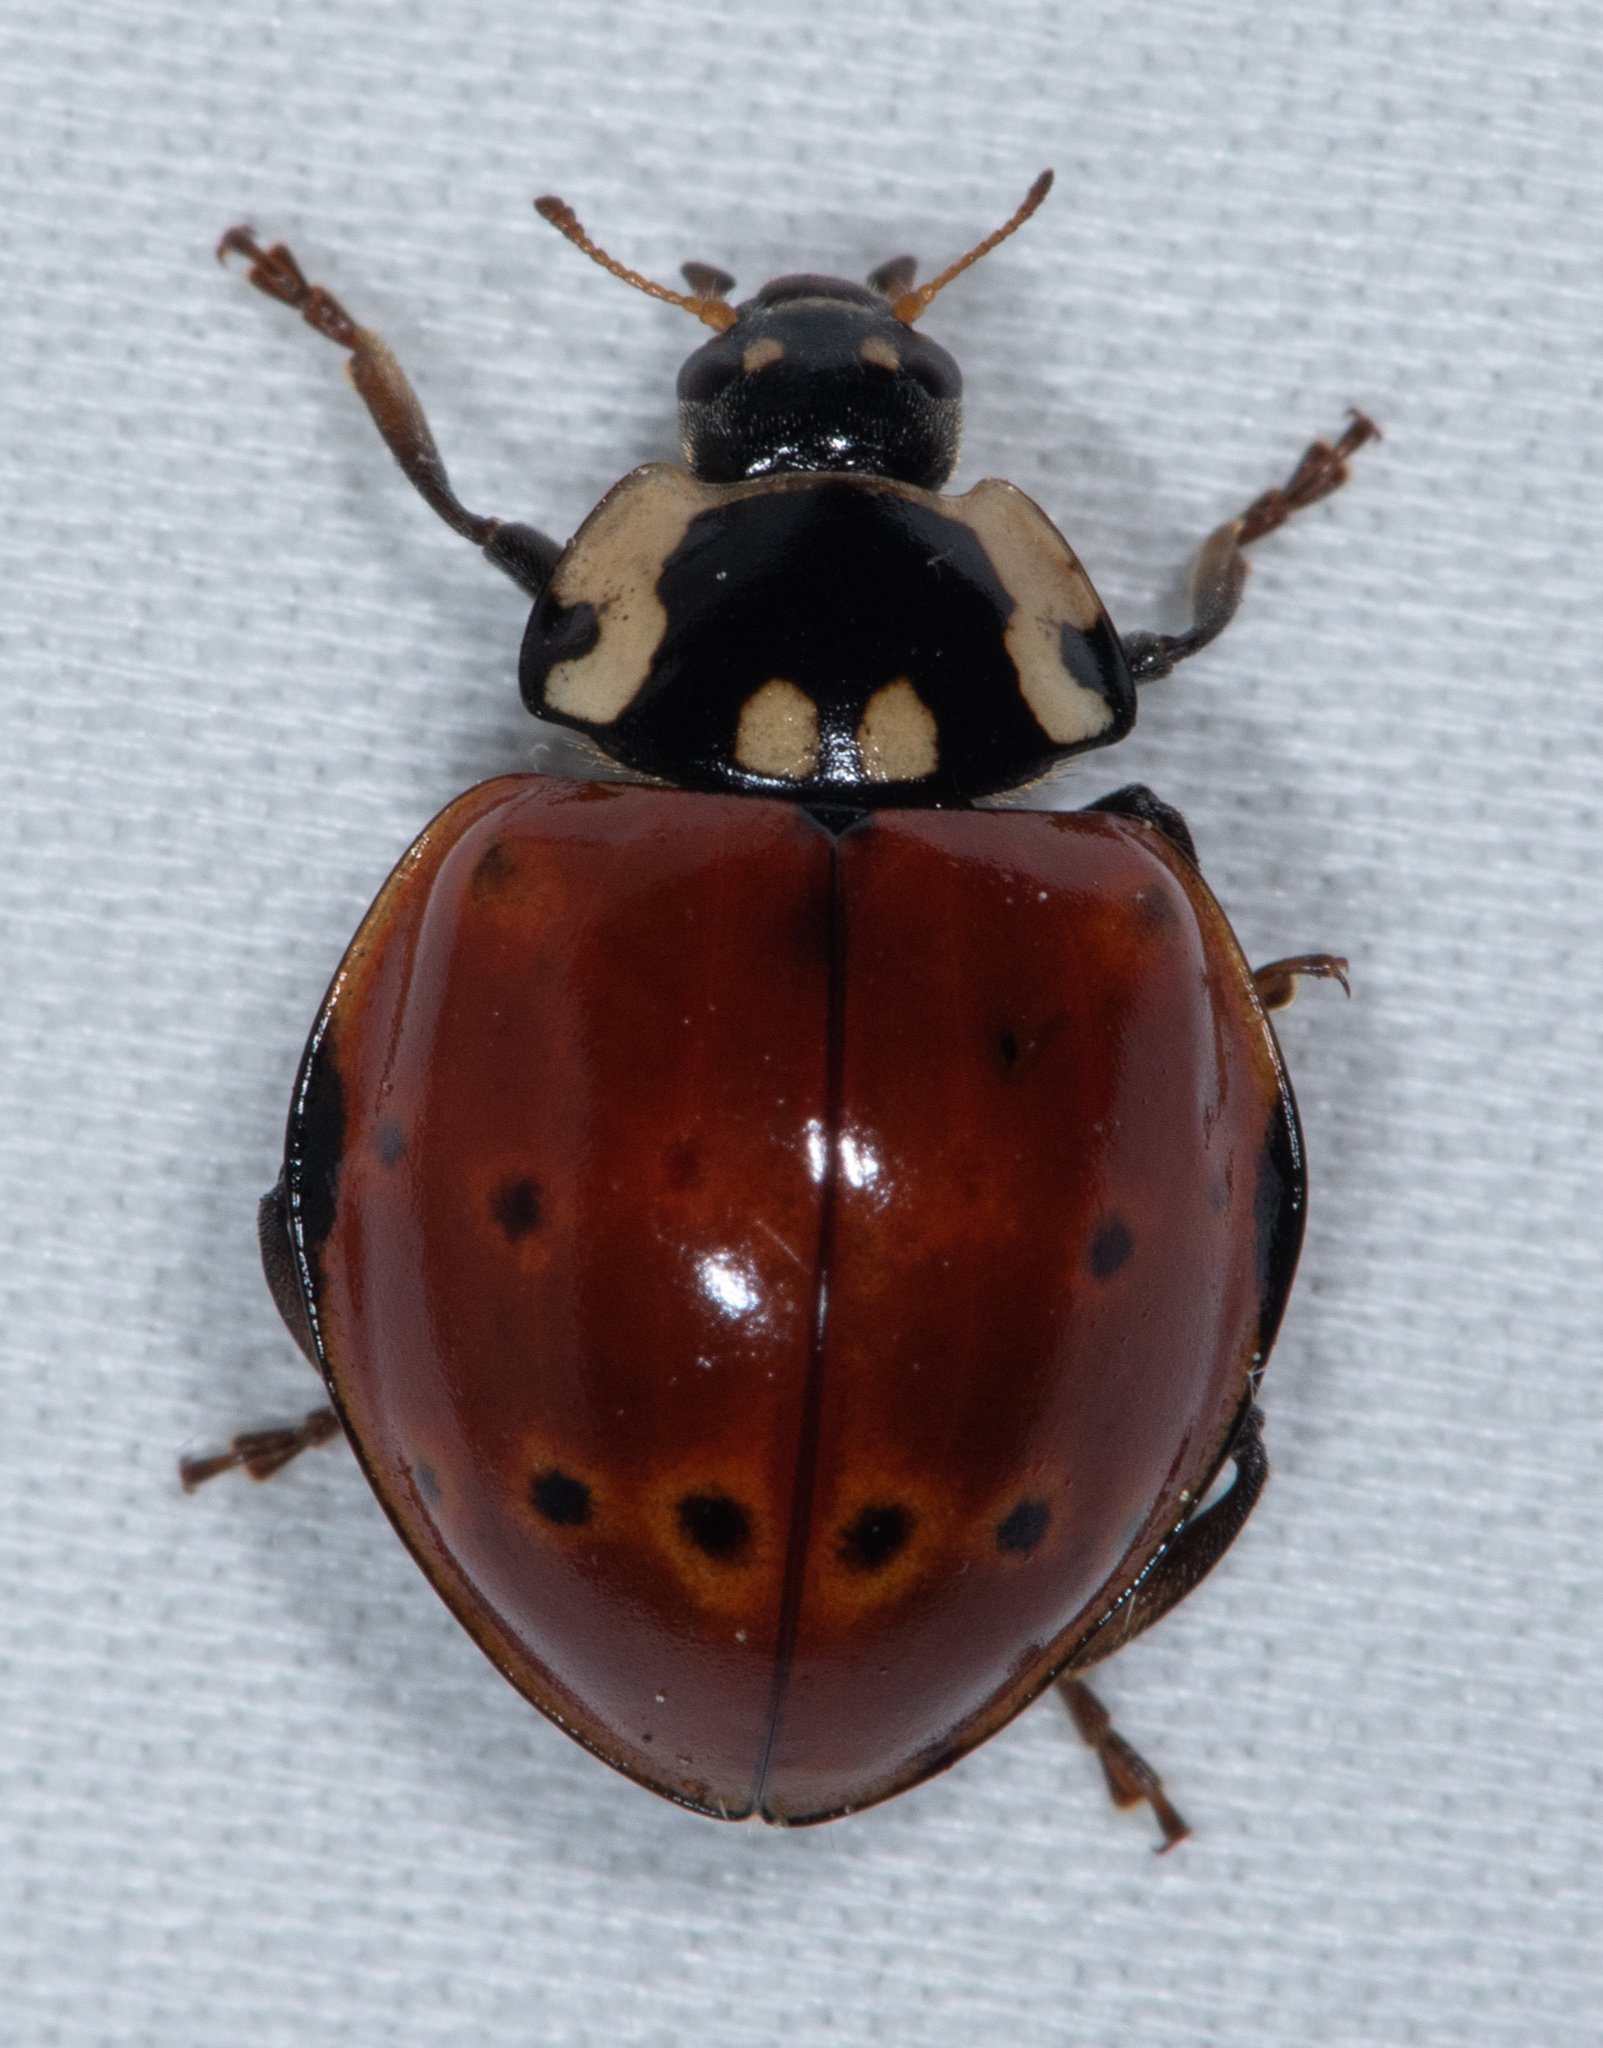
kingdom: Animalia
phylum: Arthropoda
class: Insecta
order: Coleoptera
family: Coccinellidae
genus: Anatis
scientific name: Anatis rathvoni
